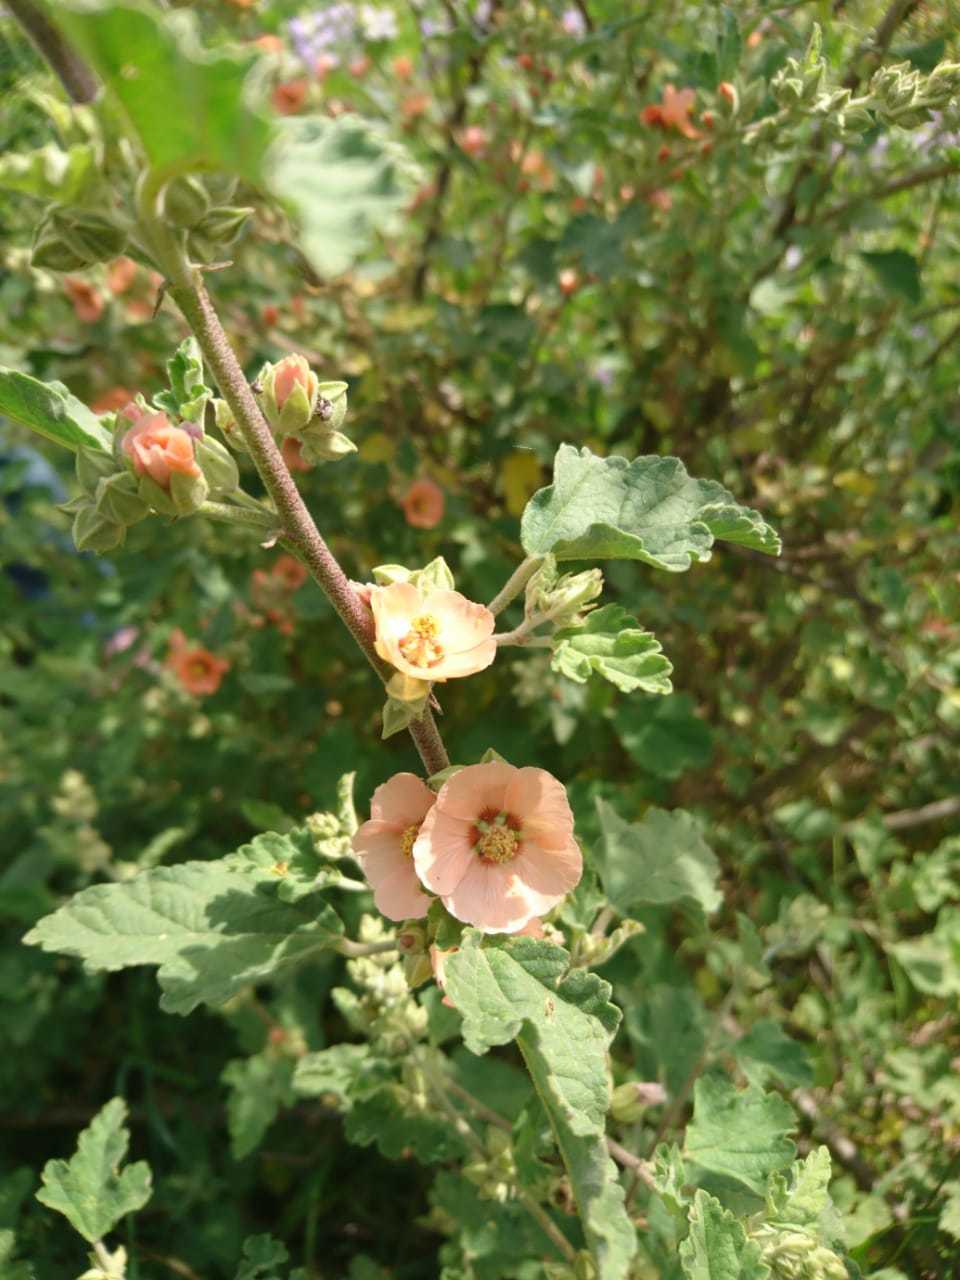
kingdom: Plantae
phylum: Tracheophyta
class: Magnoliopsida
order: Malvales
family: Malvaceae
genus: Sphaeralcea
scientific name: Sphaeralcea bonariensis
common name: Latin globemallow
